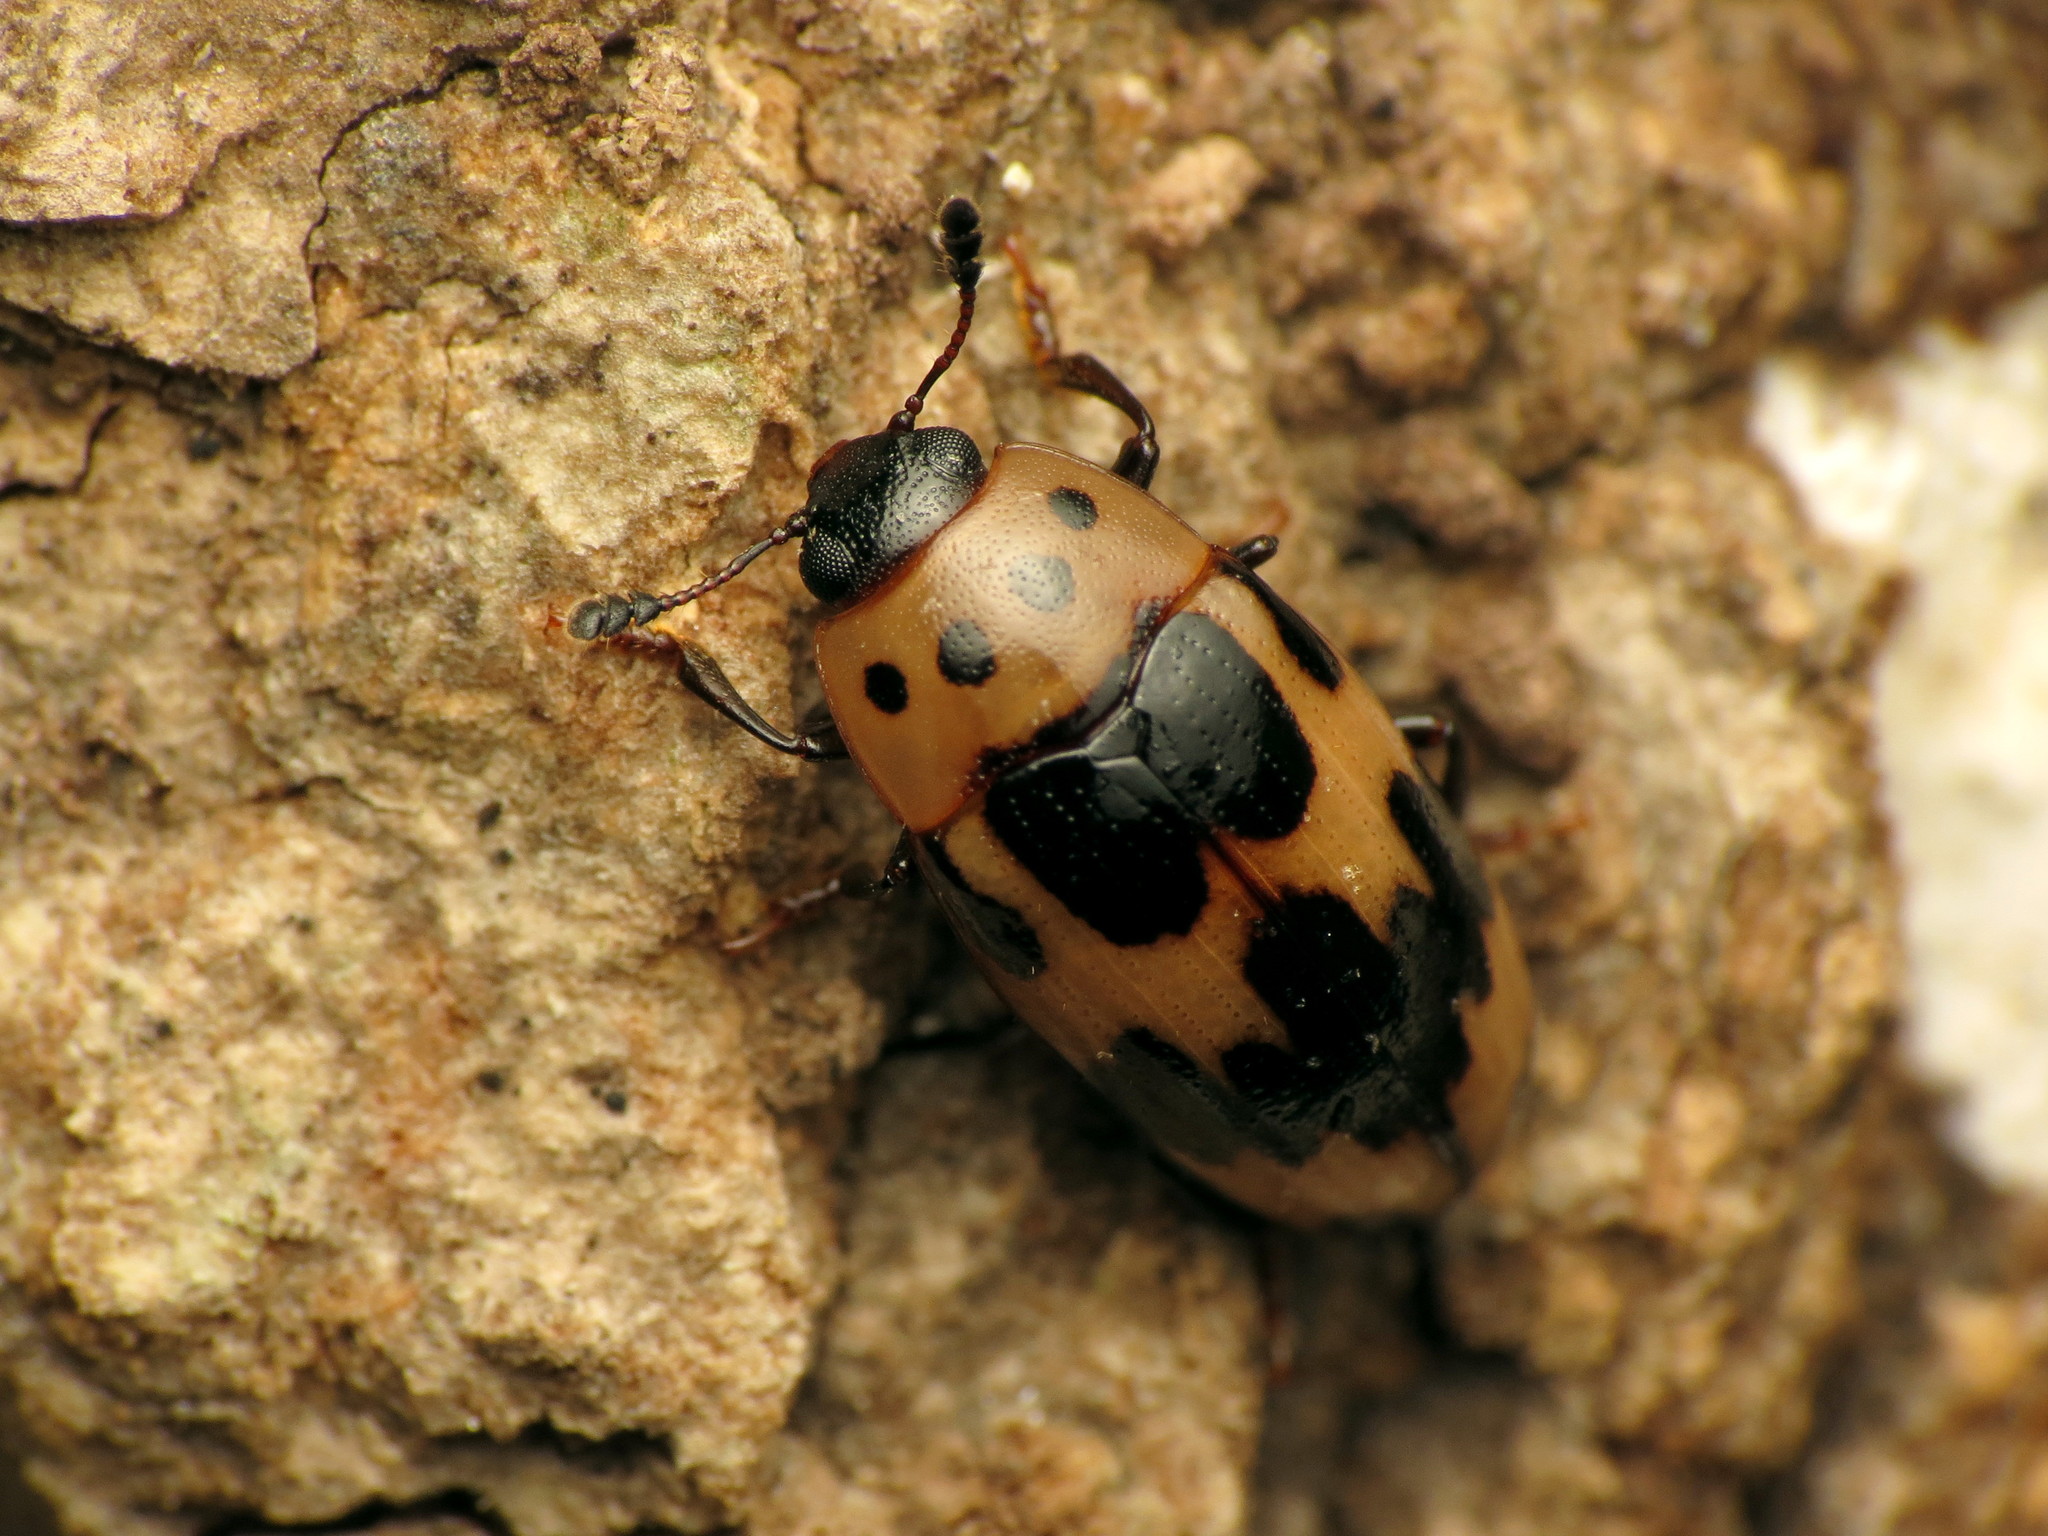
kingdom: Animalia
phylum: Arthropoda
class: Insecta
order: Coleoptera
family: Erotylidae
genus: Ischyrus
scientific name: Ischyrus quadripunctatus
